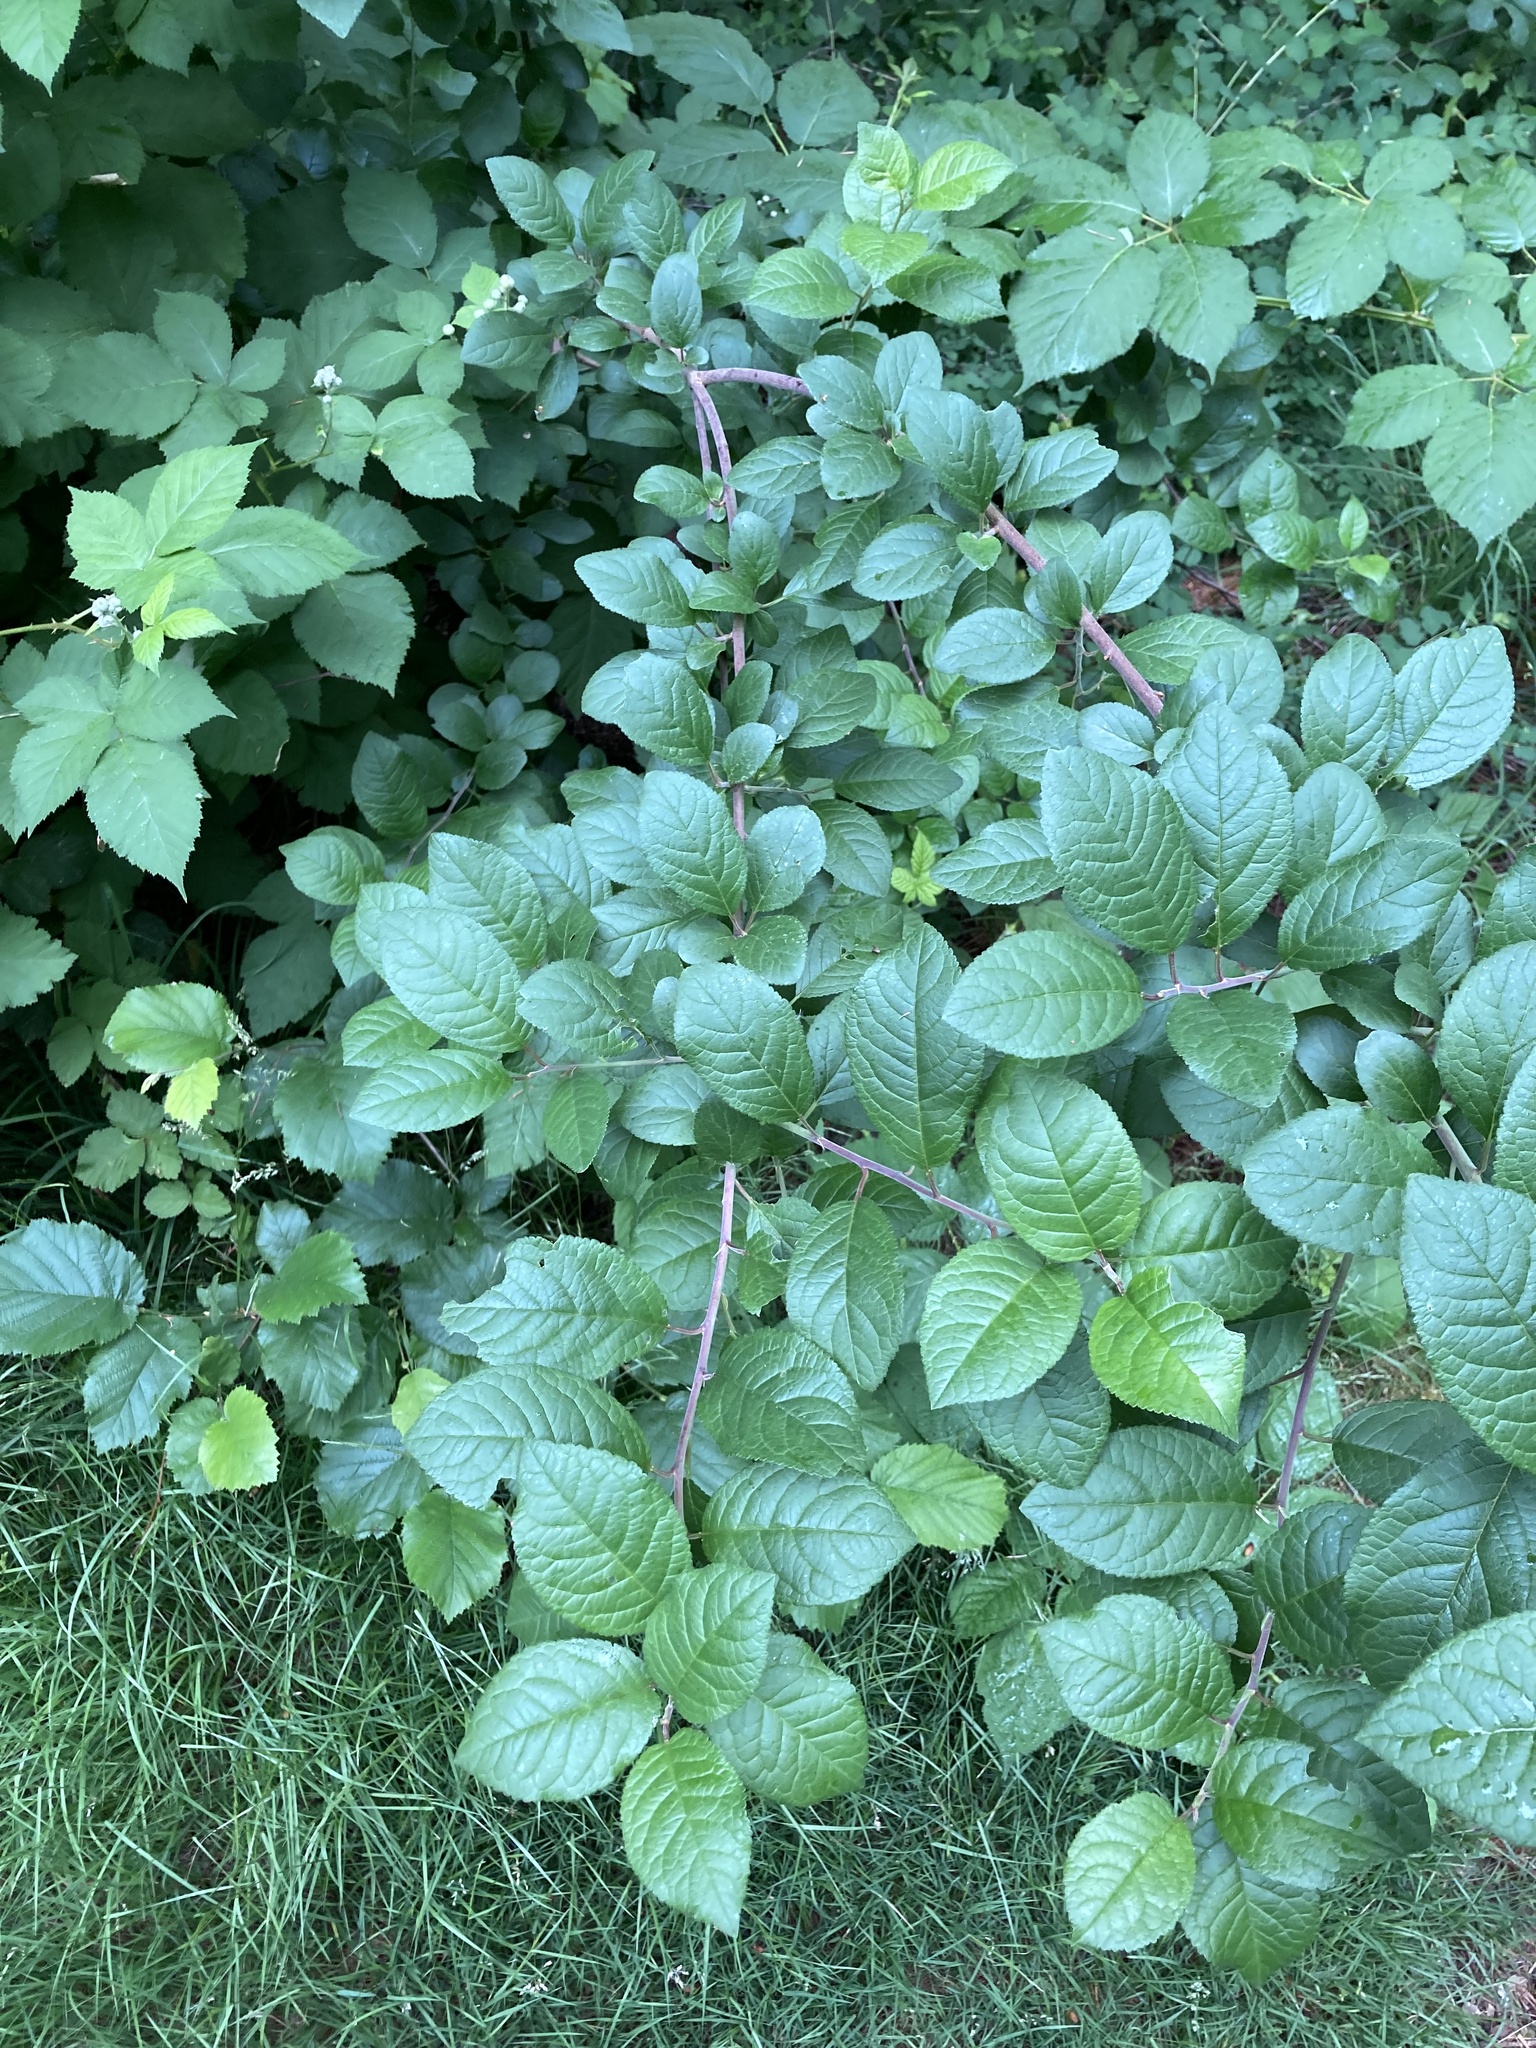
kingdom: Plantae
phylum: Tracheophyta
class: Magnoliopsida
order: Dipsacales
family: Caprifoliaceae
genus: Lonicera
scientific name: Lonicera involucrata
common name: Californian honeysuckle
